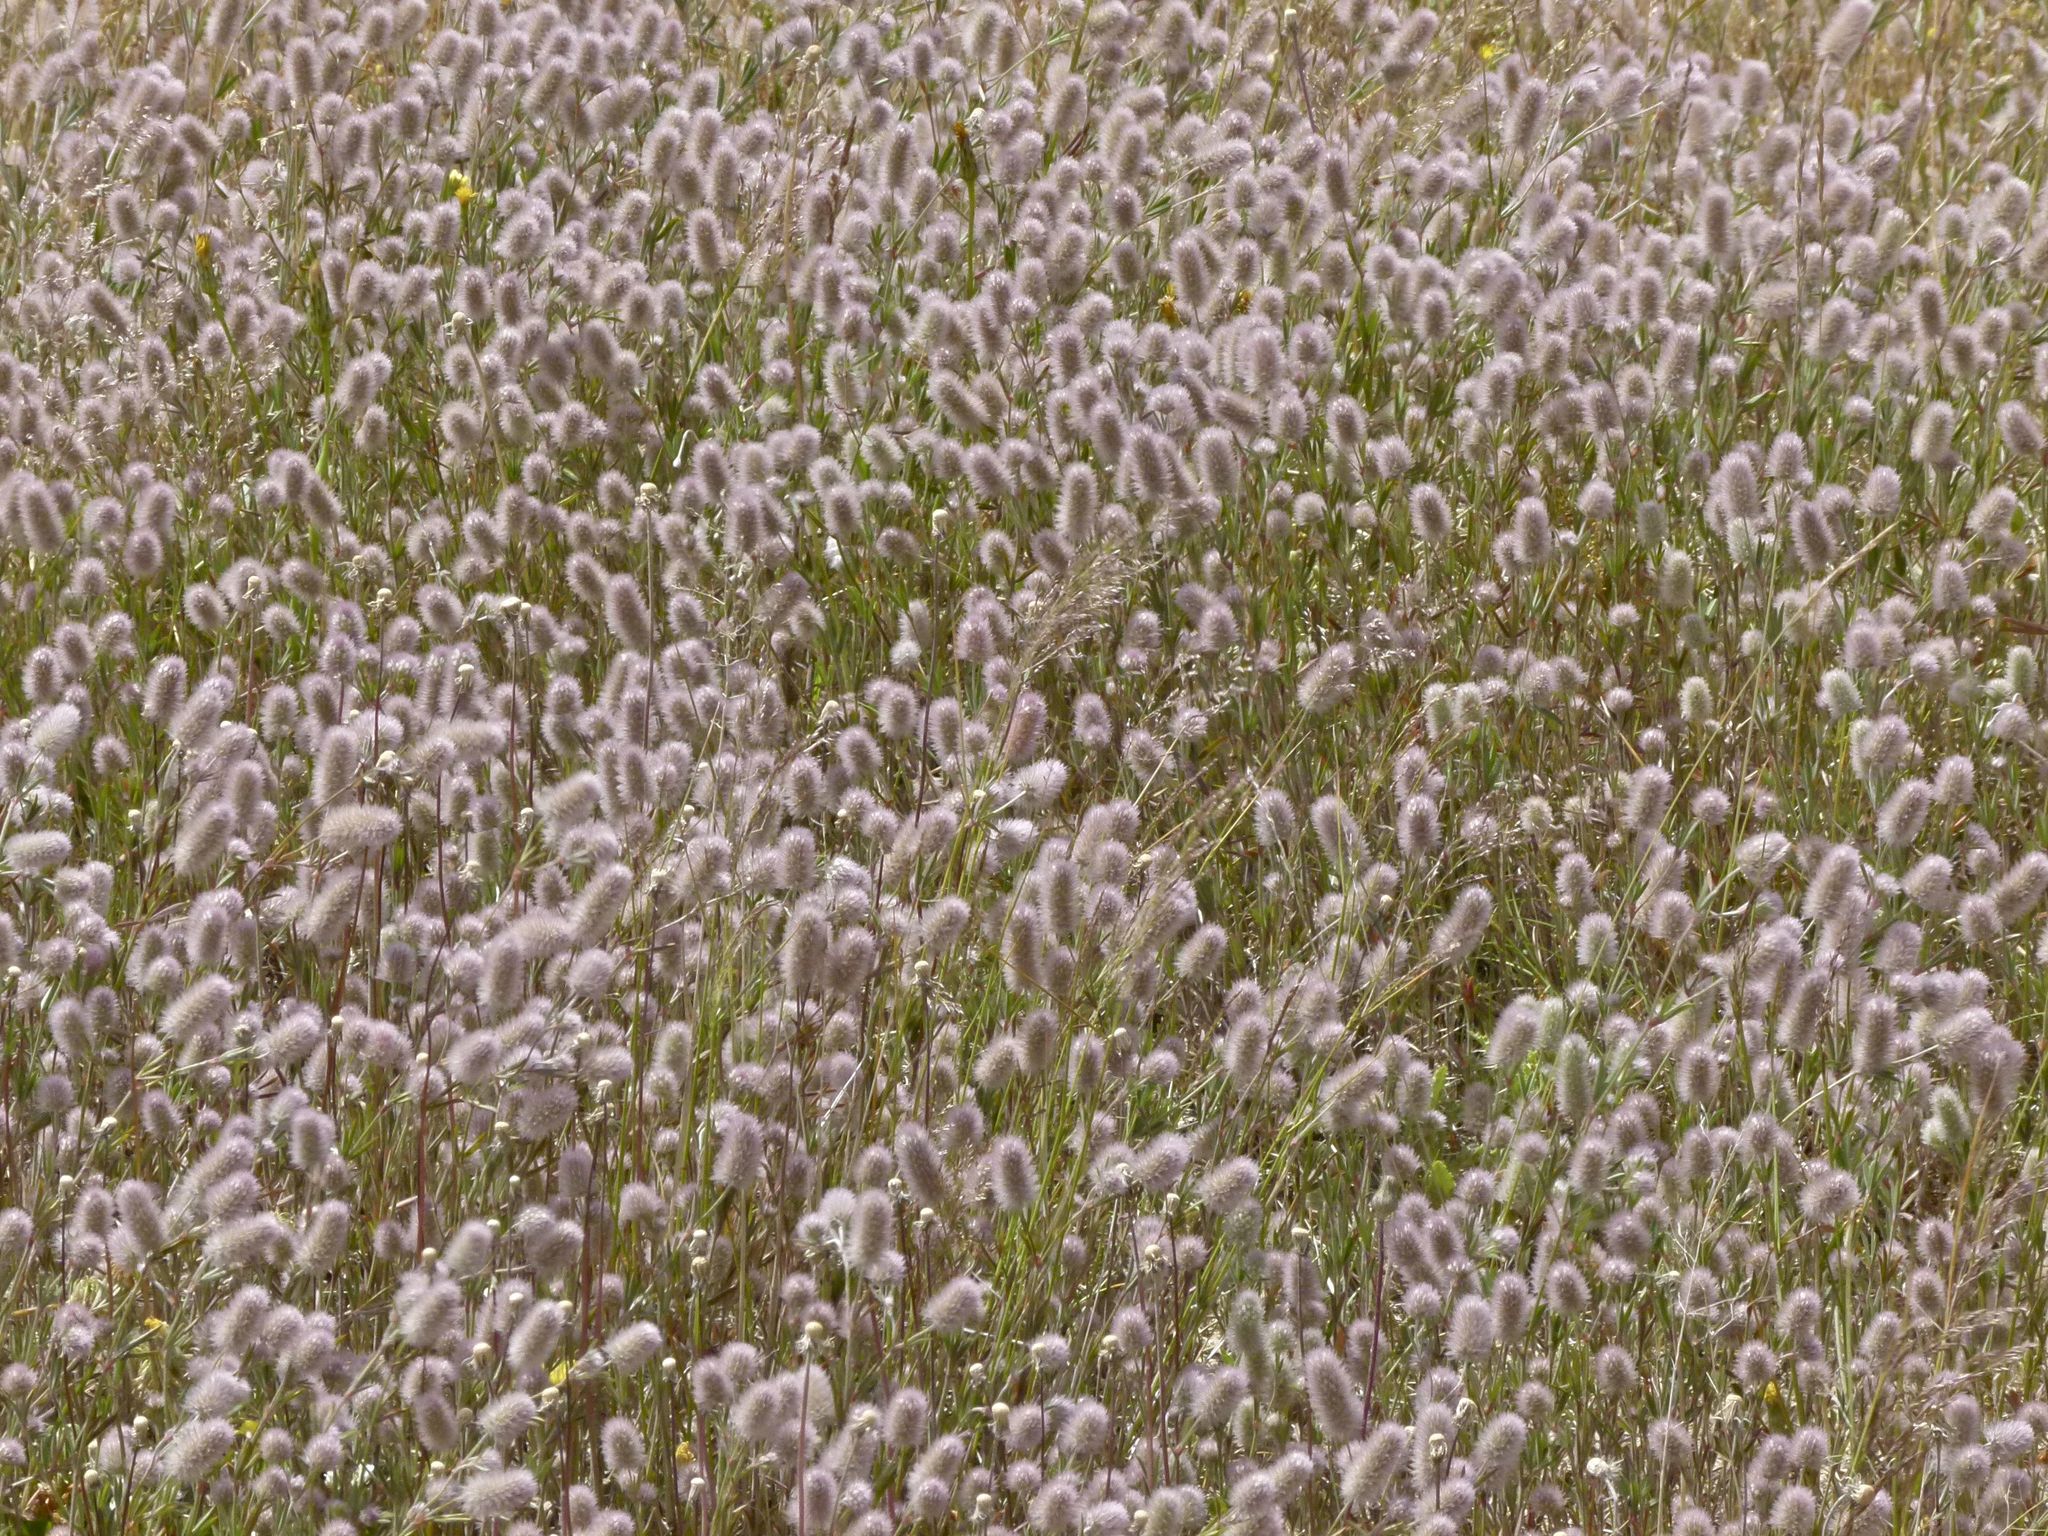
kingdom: Plantae
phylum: Tracheophyta
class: Magnoliopsida
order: Fabales
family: Fabaceae
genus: Trifolium
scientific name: Trifolium arvense
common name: Hare's-foot clover
